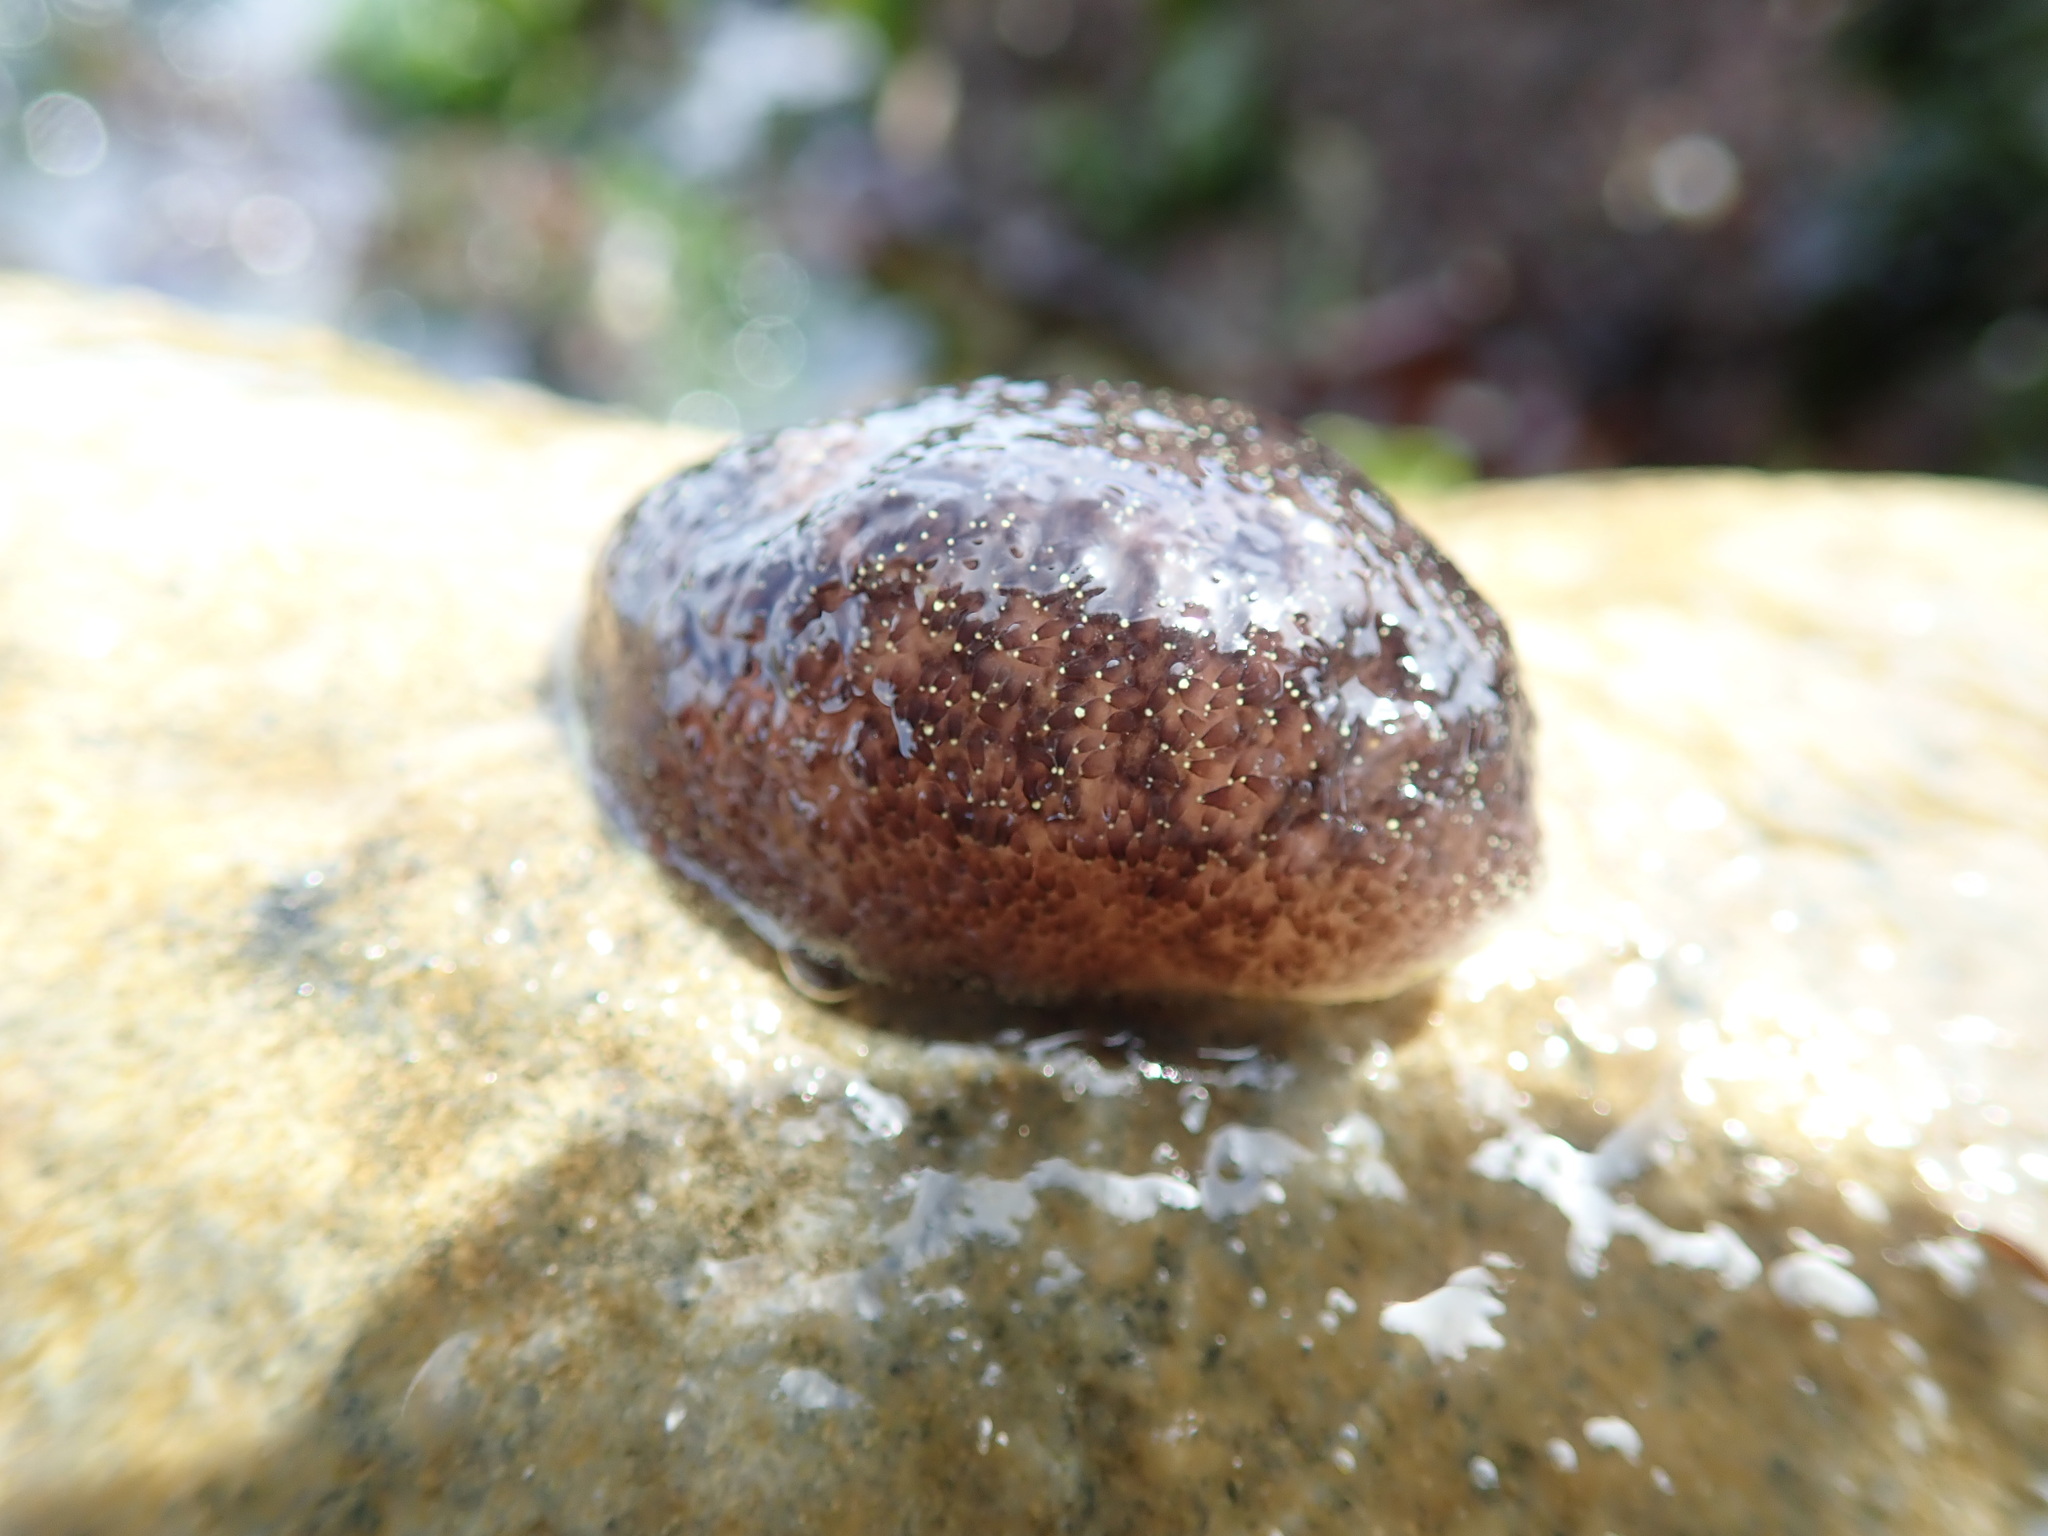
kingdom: Animalia
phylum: Mollusca
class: Gastropoda
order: Nudibranchia
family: Onchidorididae
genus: Acanthodoris
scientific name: Acanthodoris nanaimoensis
